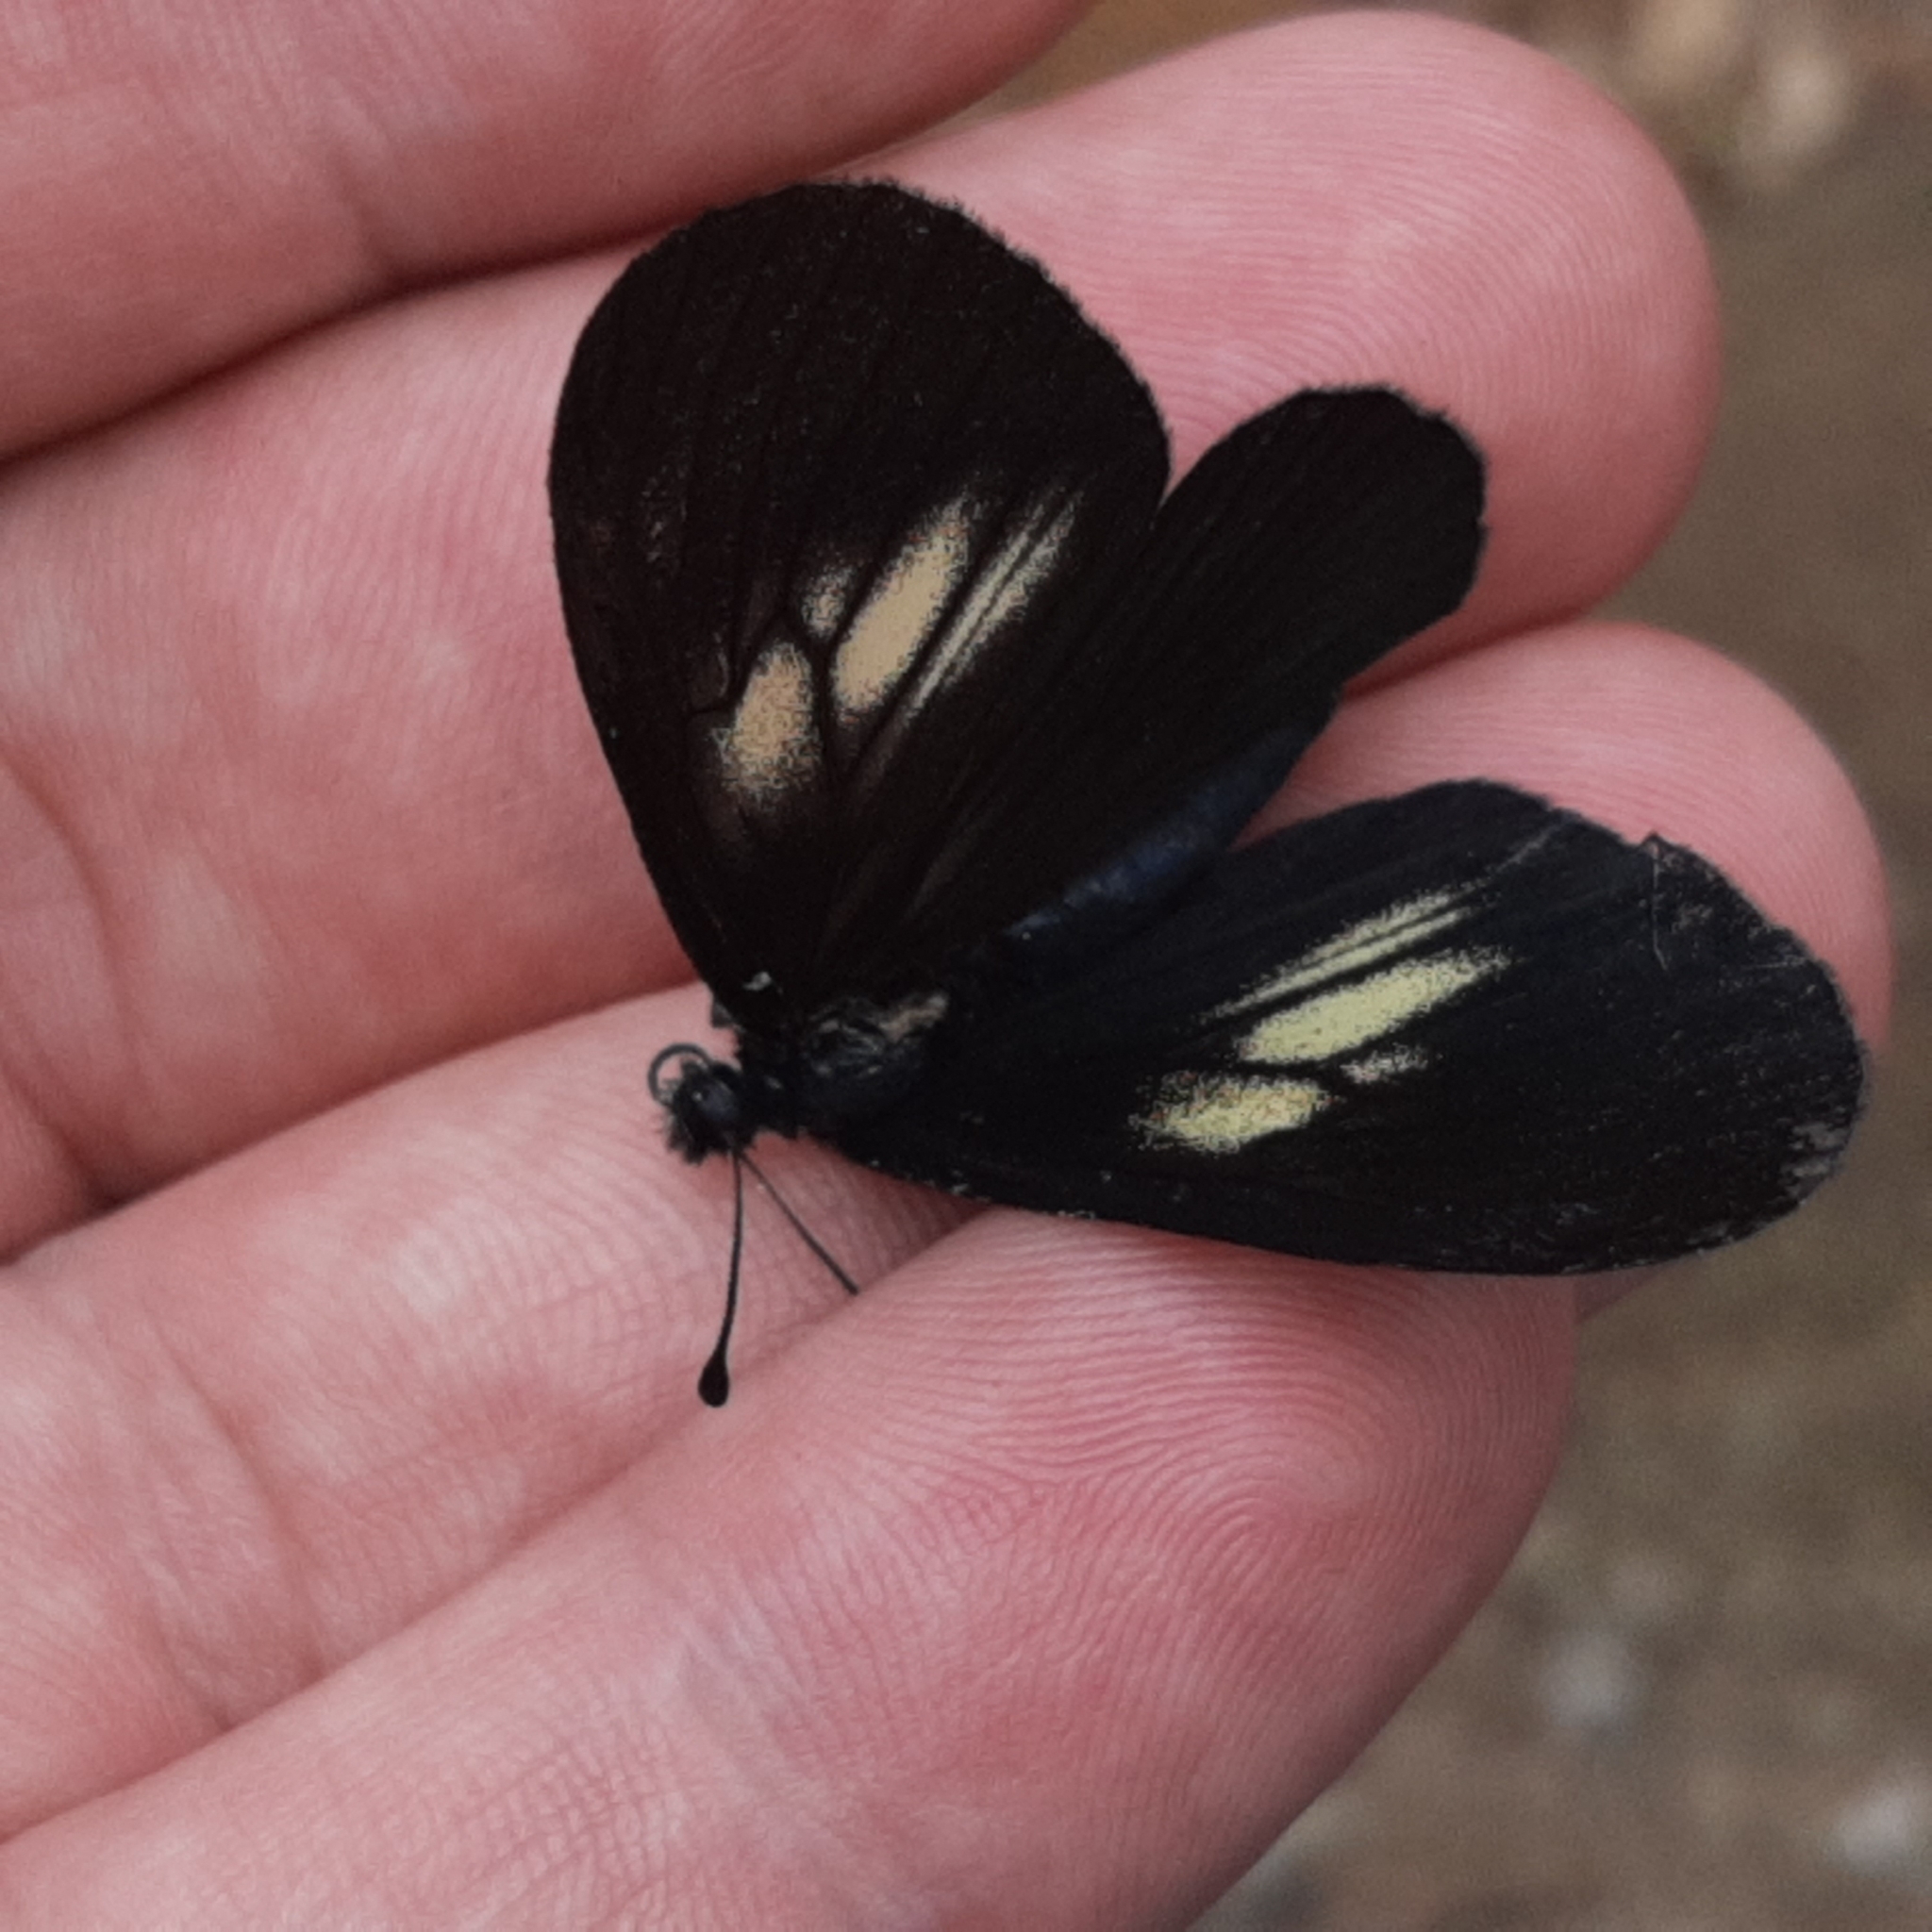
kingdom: Animalia
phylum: Arthropoda
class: Insecta
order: Lepidoptera
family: Nymphalidae
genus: Acraea
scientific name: Acraea Altinote ozomene
